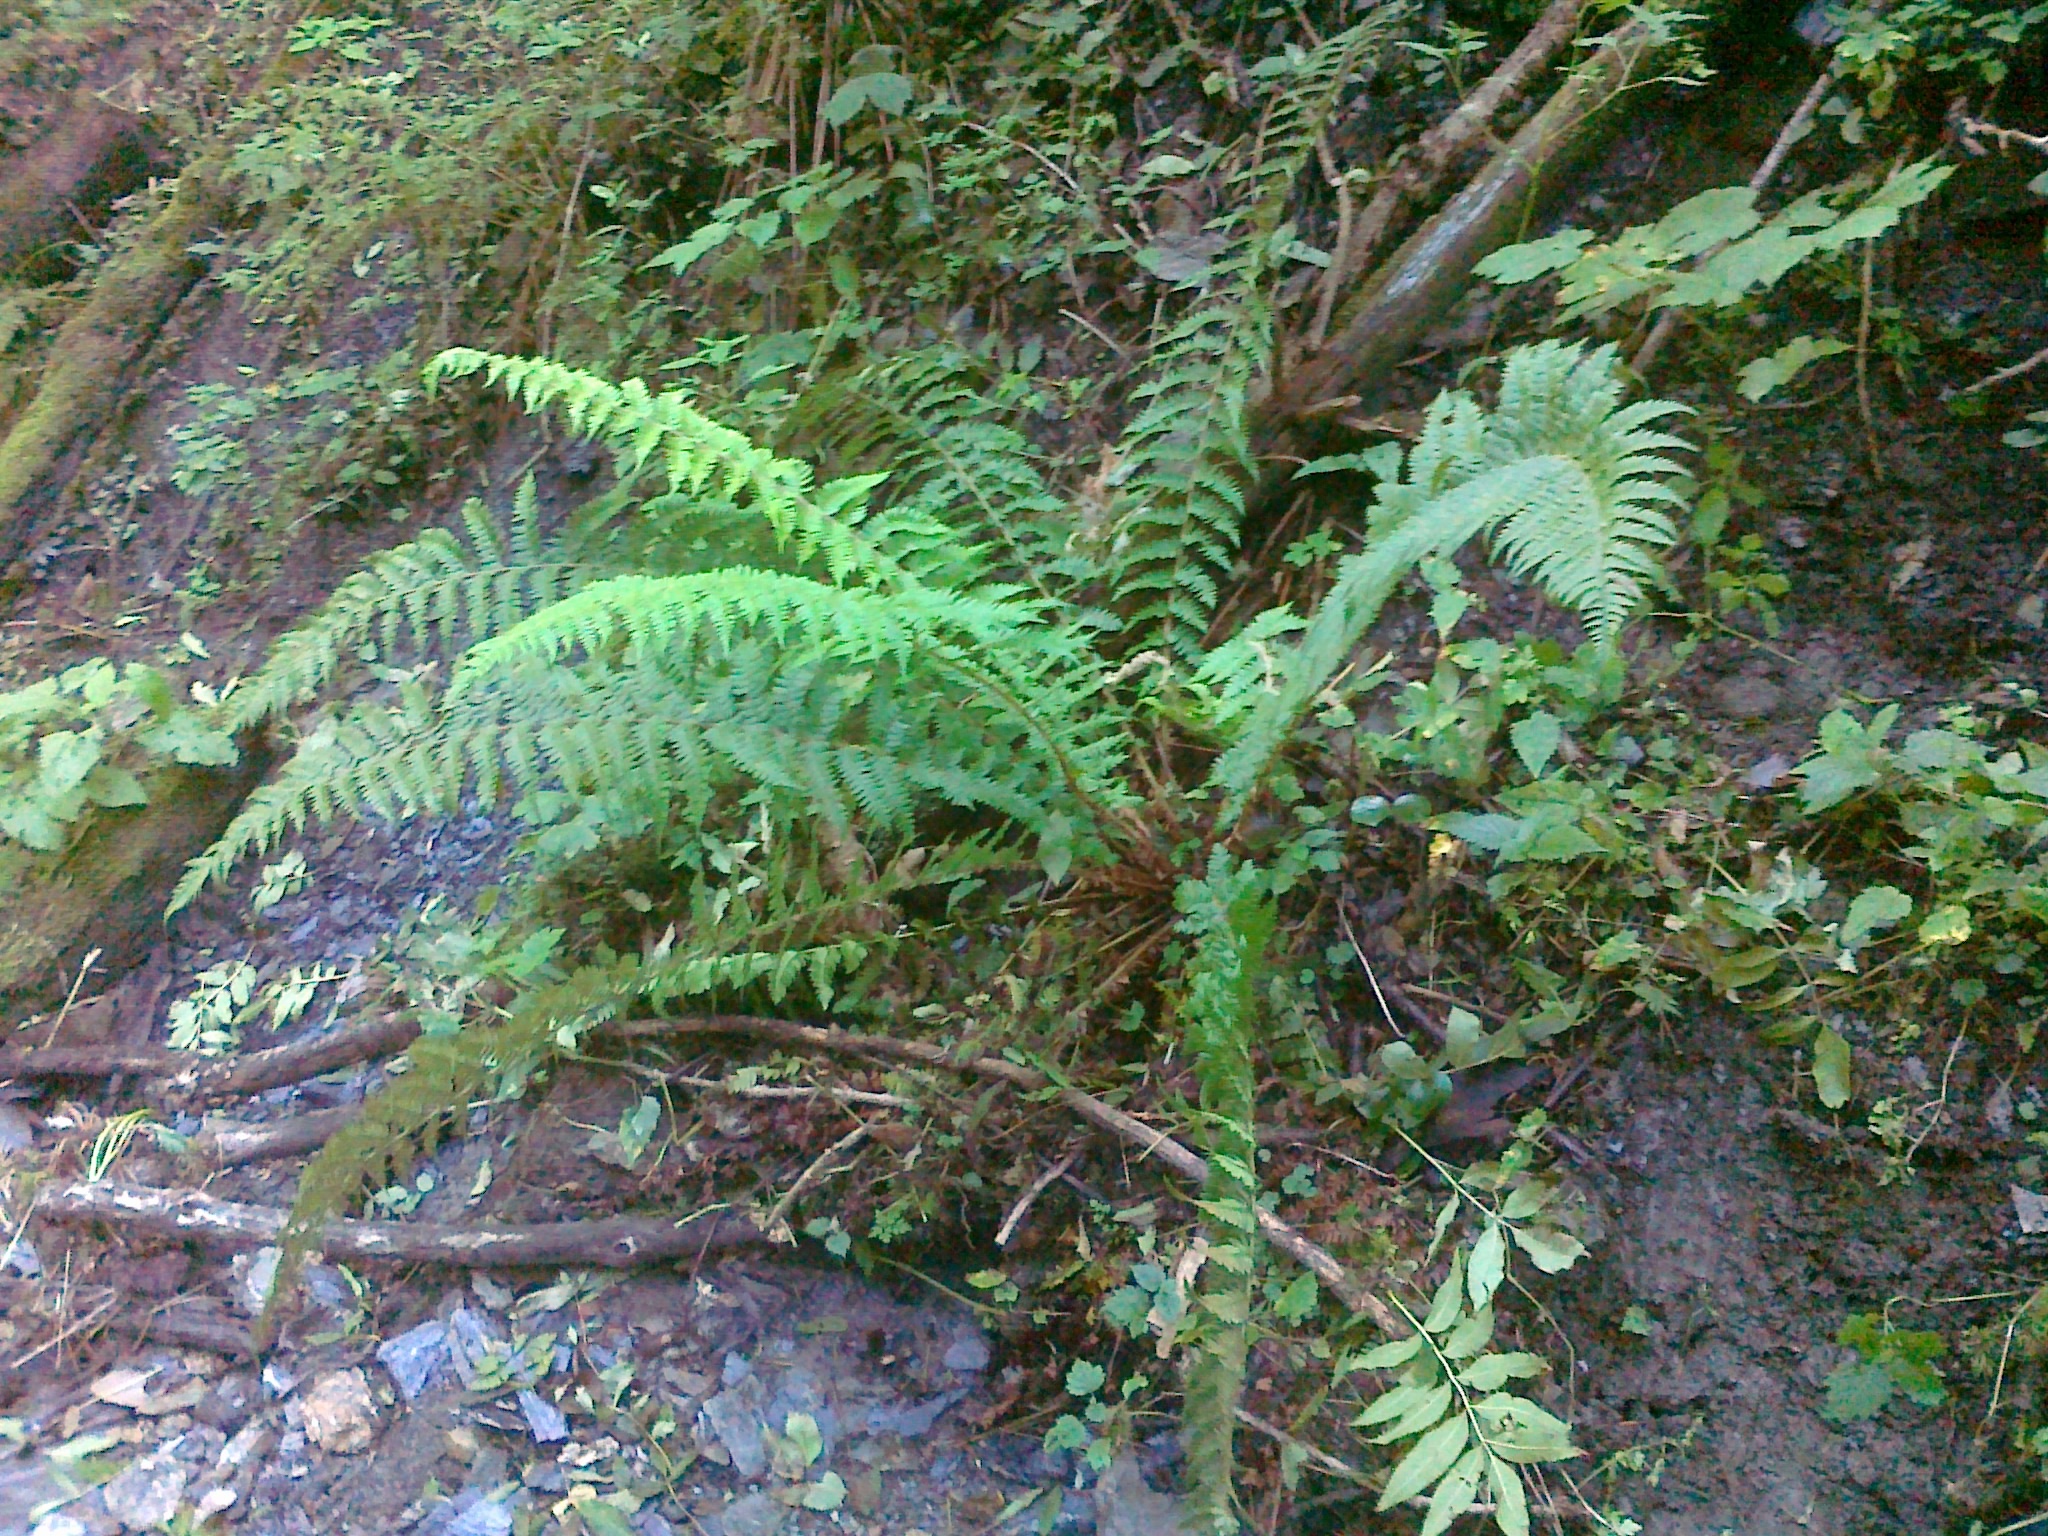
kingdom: Plantae
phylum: Tracheophyta
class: Polypodiopsida
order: Polypodiales
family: Dryopteridaceae
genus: Polystichum
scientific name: Polystichum luerssenii
